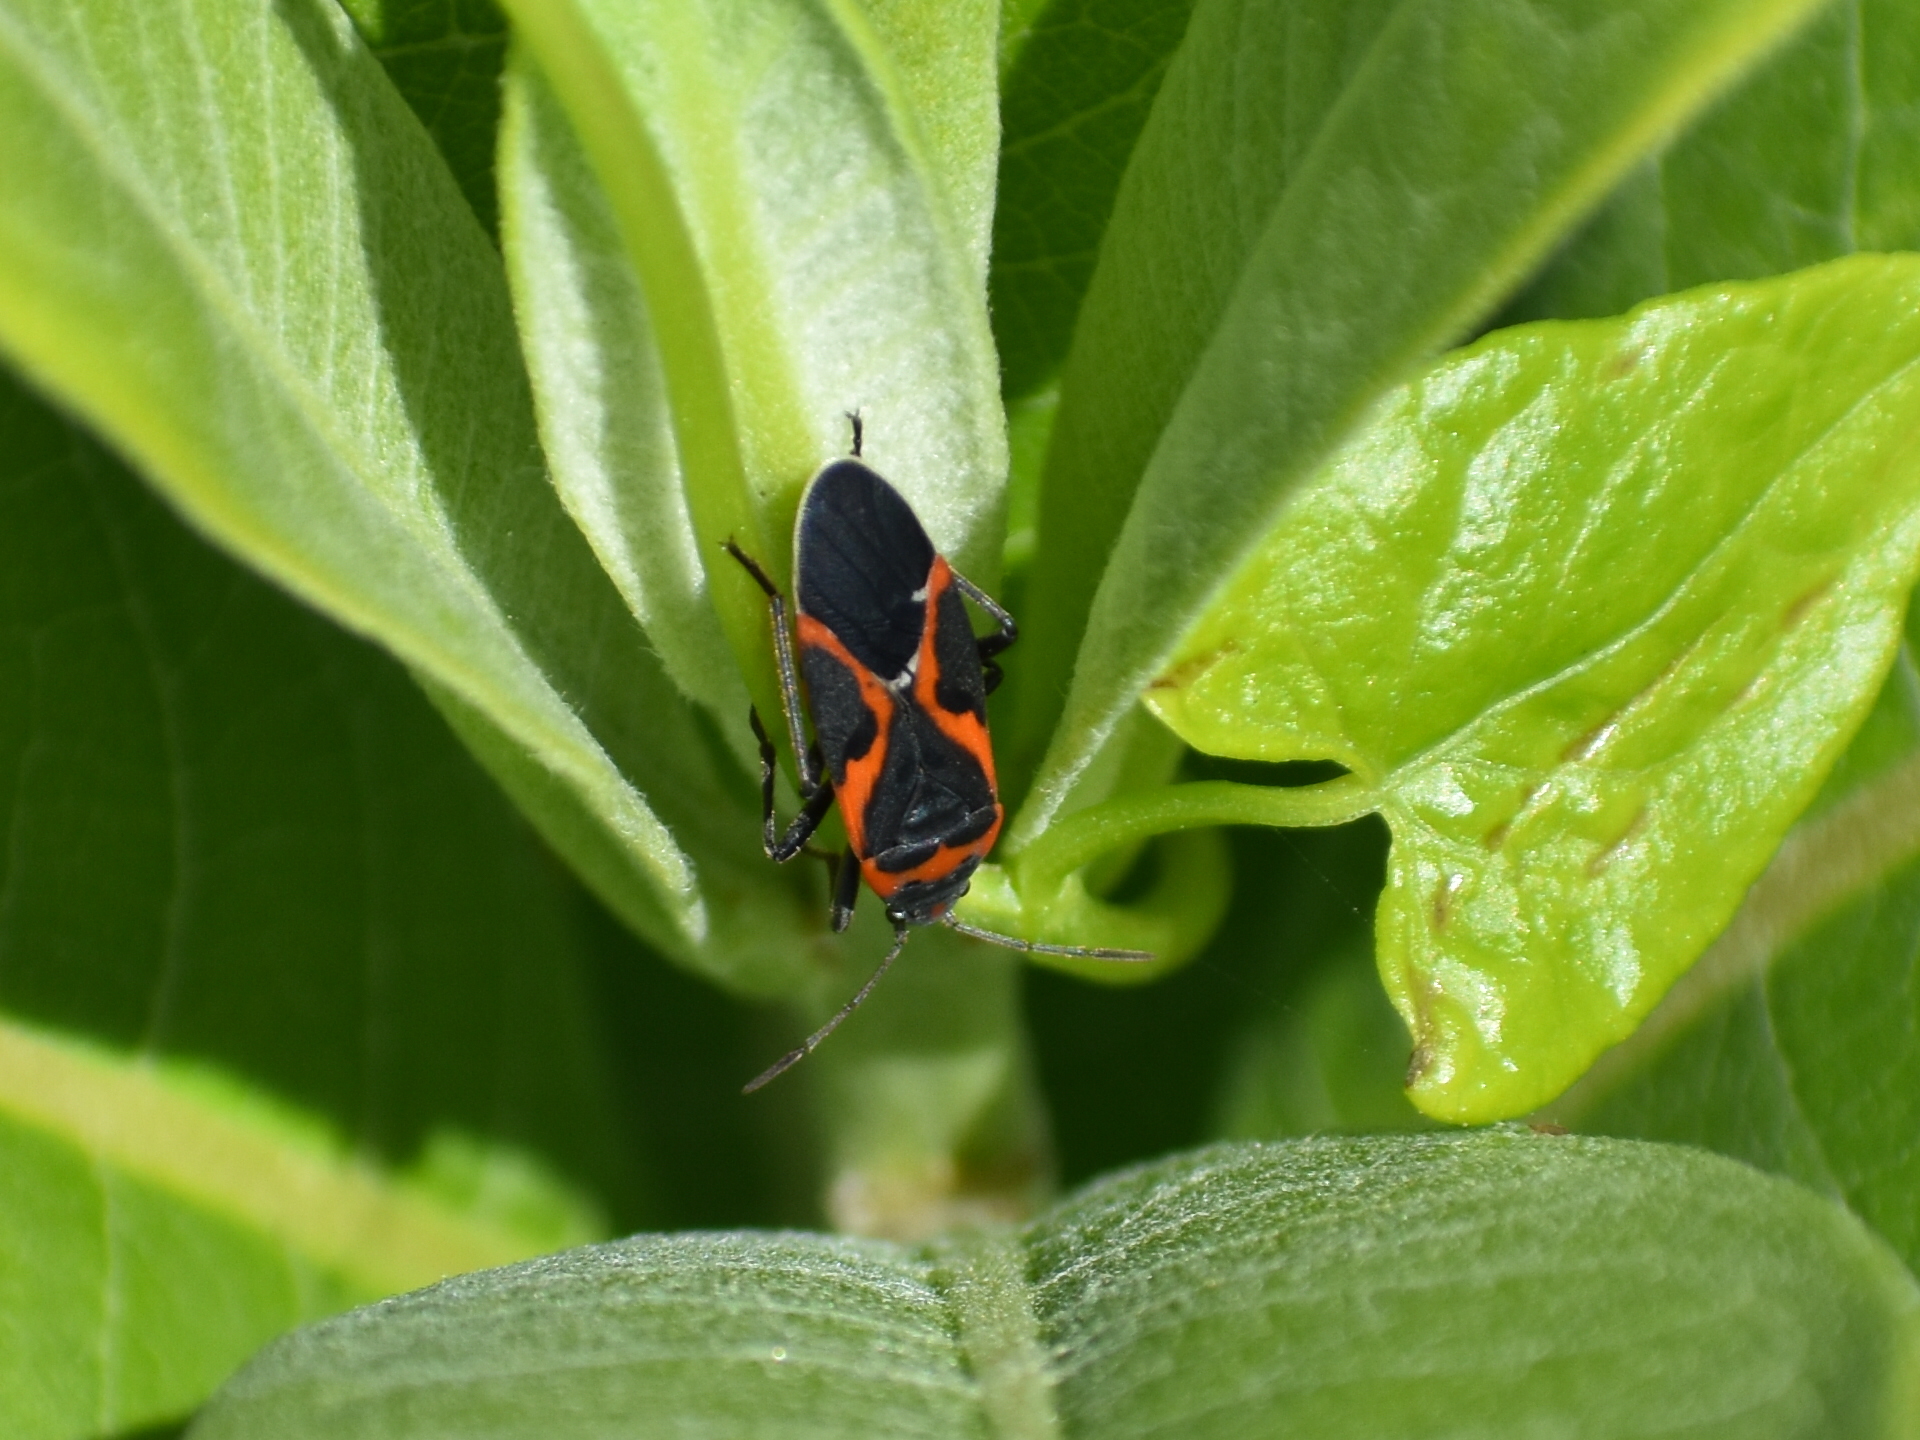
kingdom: Animalia
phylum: Arthropoda
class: Insecta
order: Hemiptera
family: Lygaeidae
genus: Lygaeus
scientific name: Lygaeus kalmii
